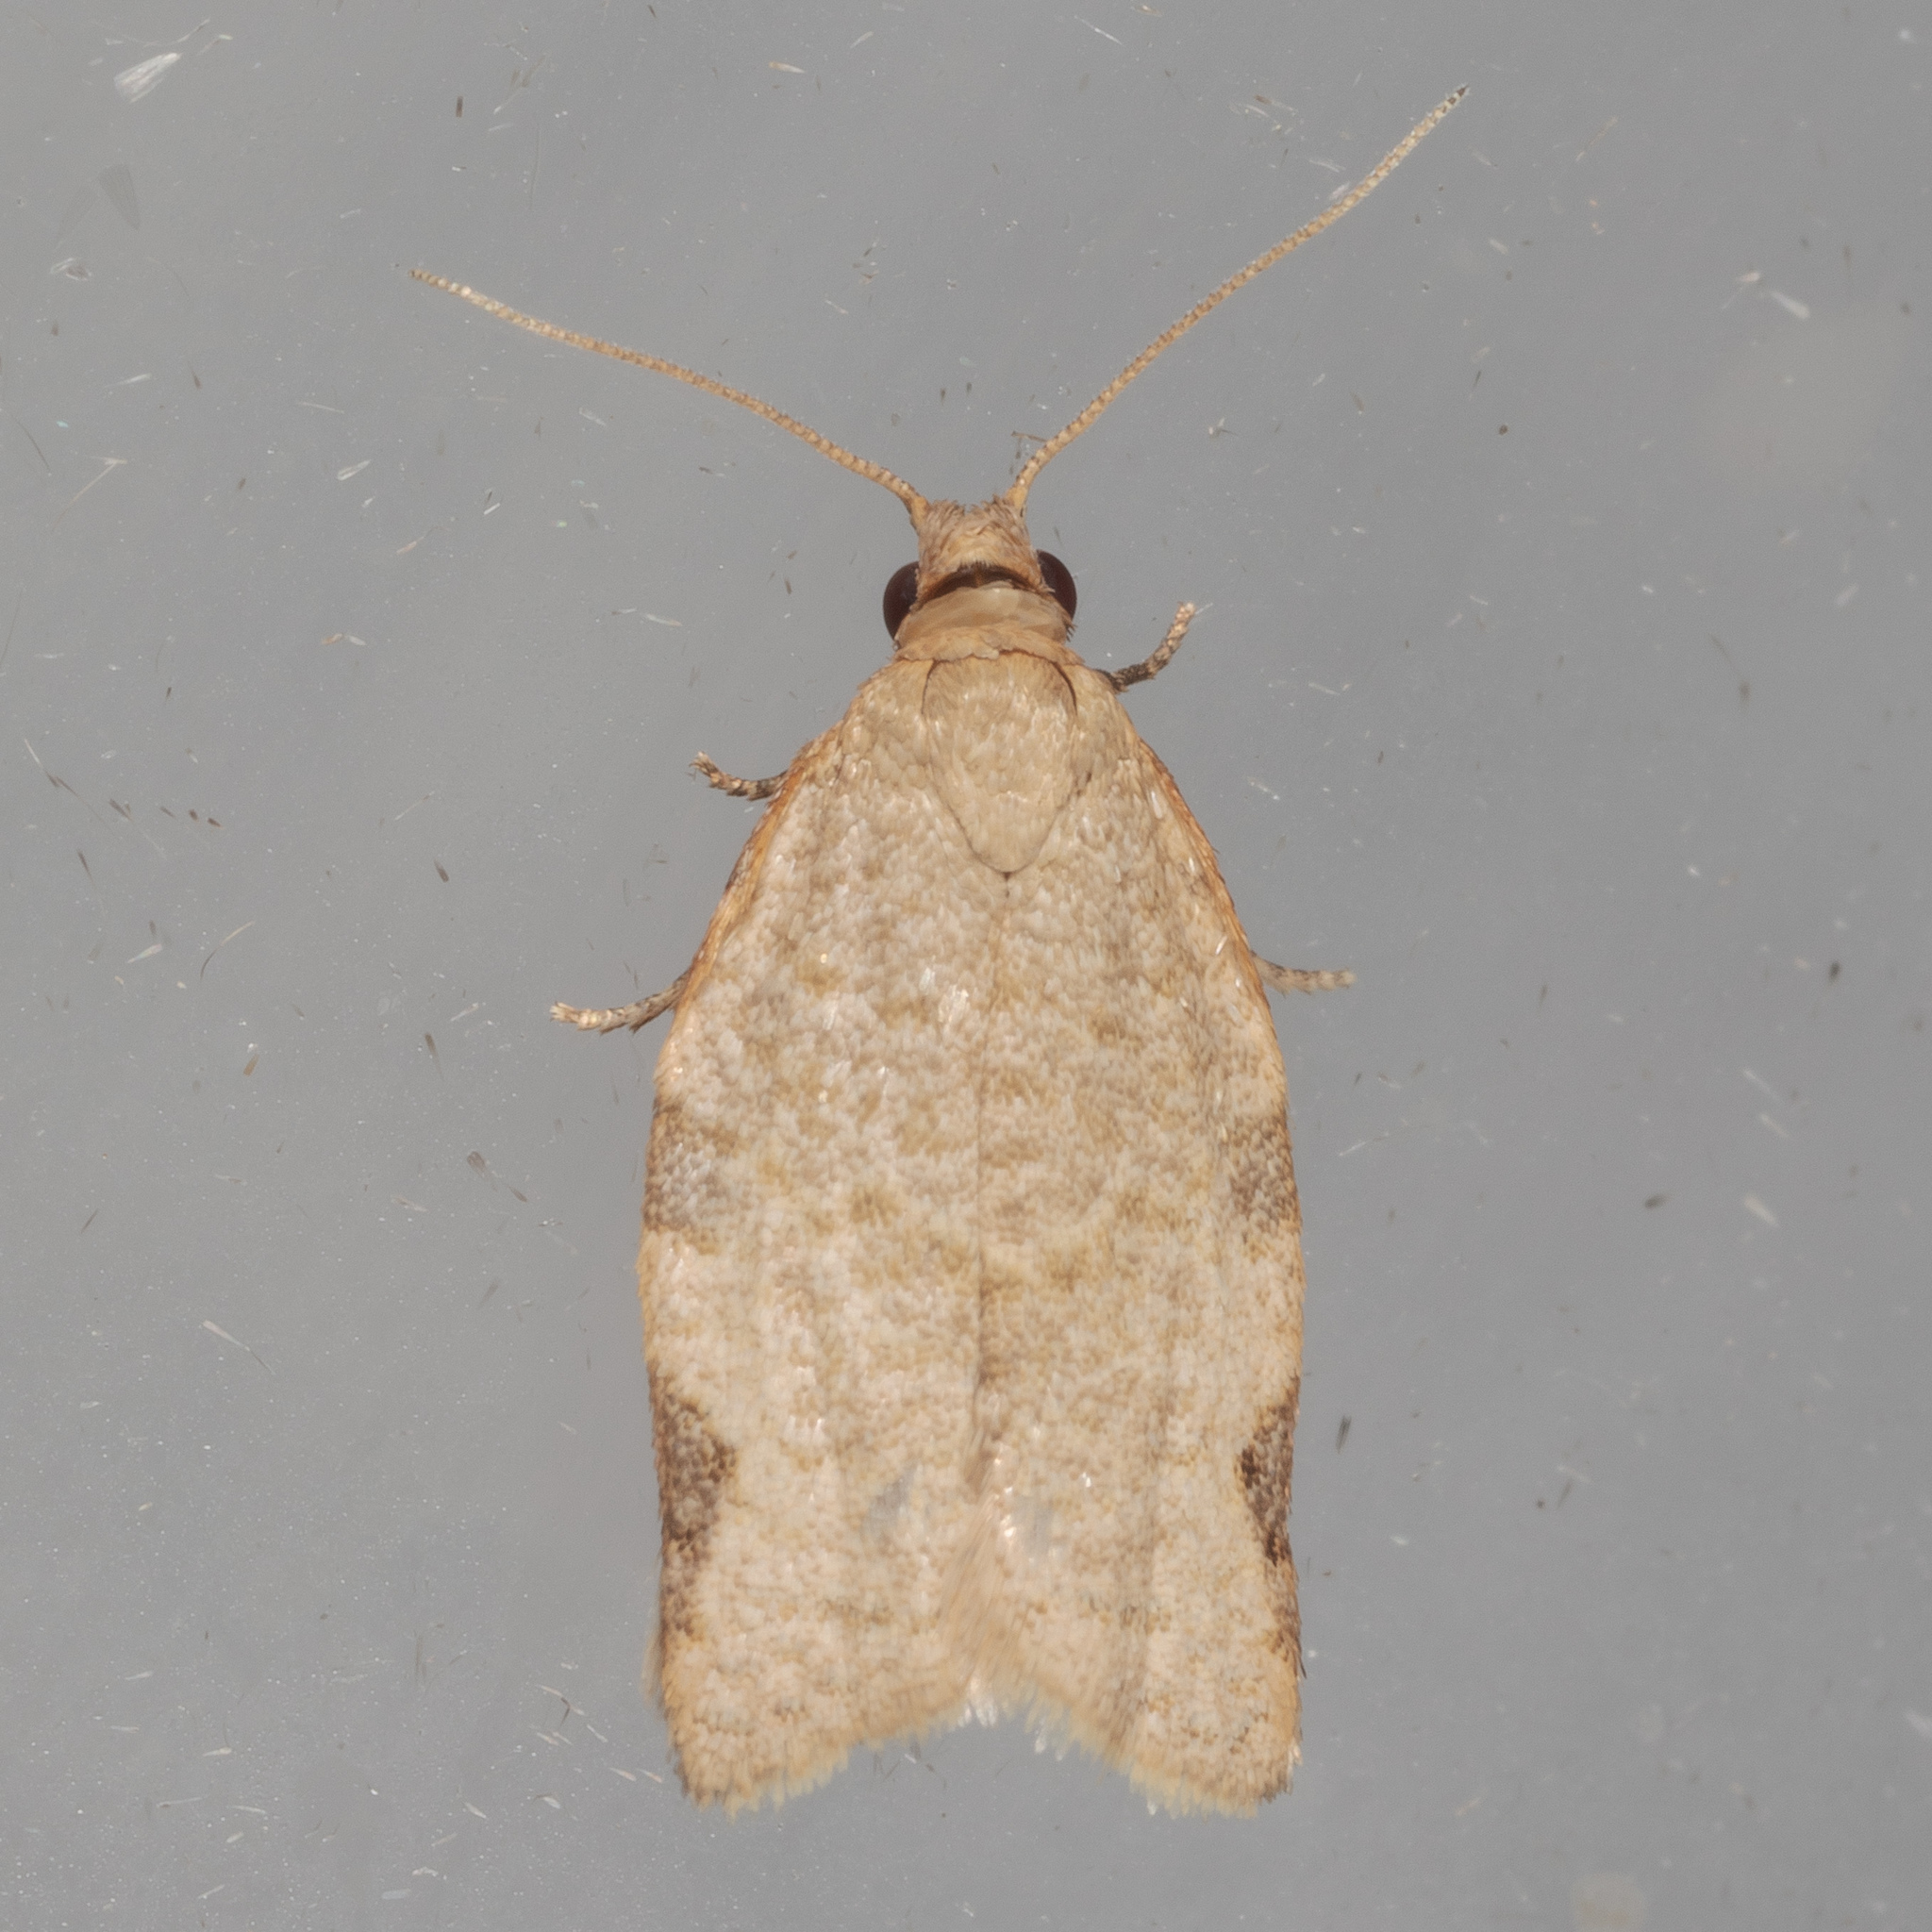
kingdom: Animalia
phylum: Arthropoda
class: Insecta
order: Lepidoptera
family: Tortricidae
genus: Clepsis
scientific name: Clepsis virescana
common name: Greenish apple moth
